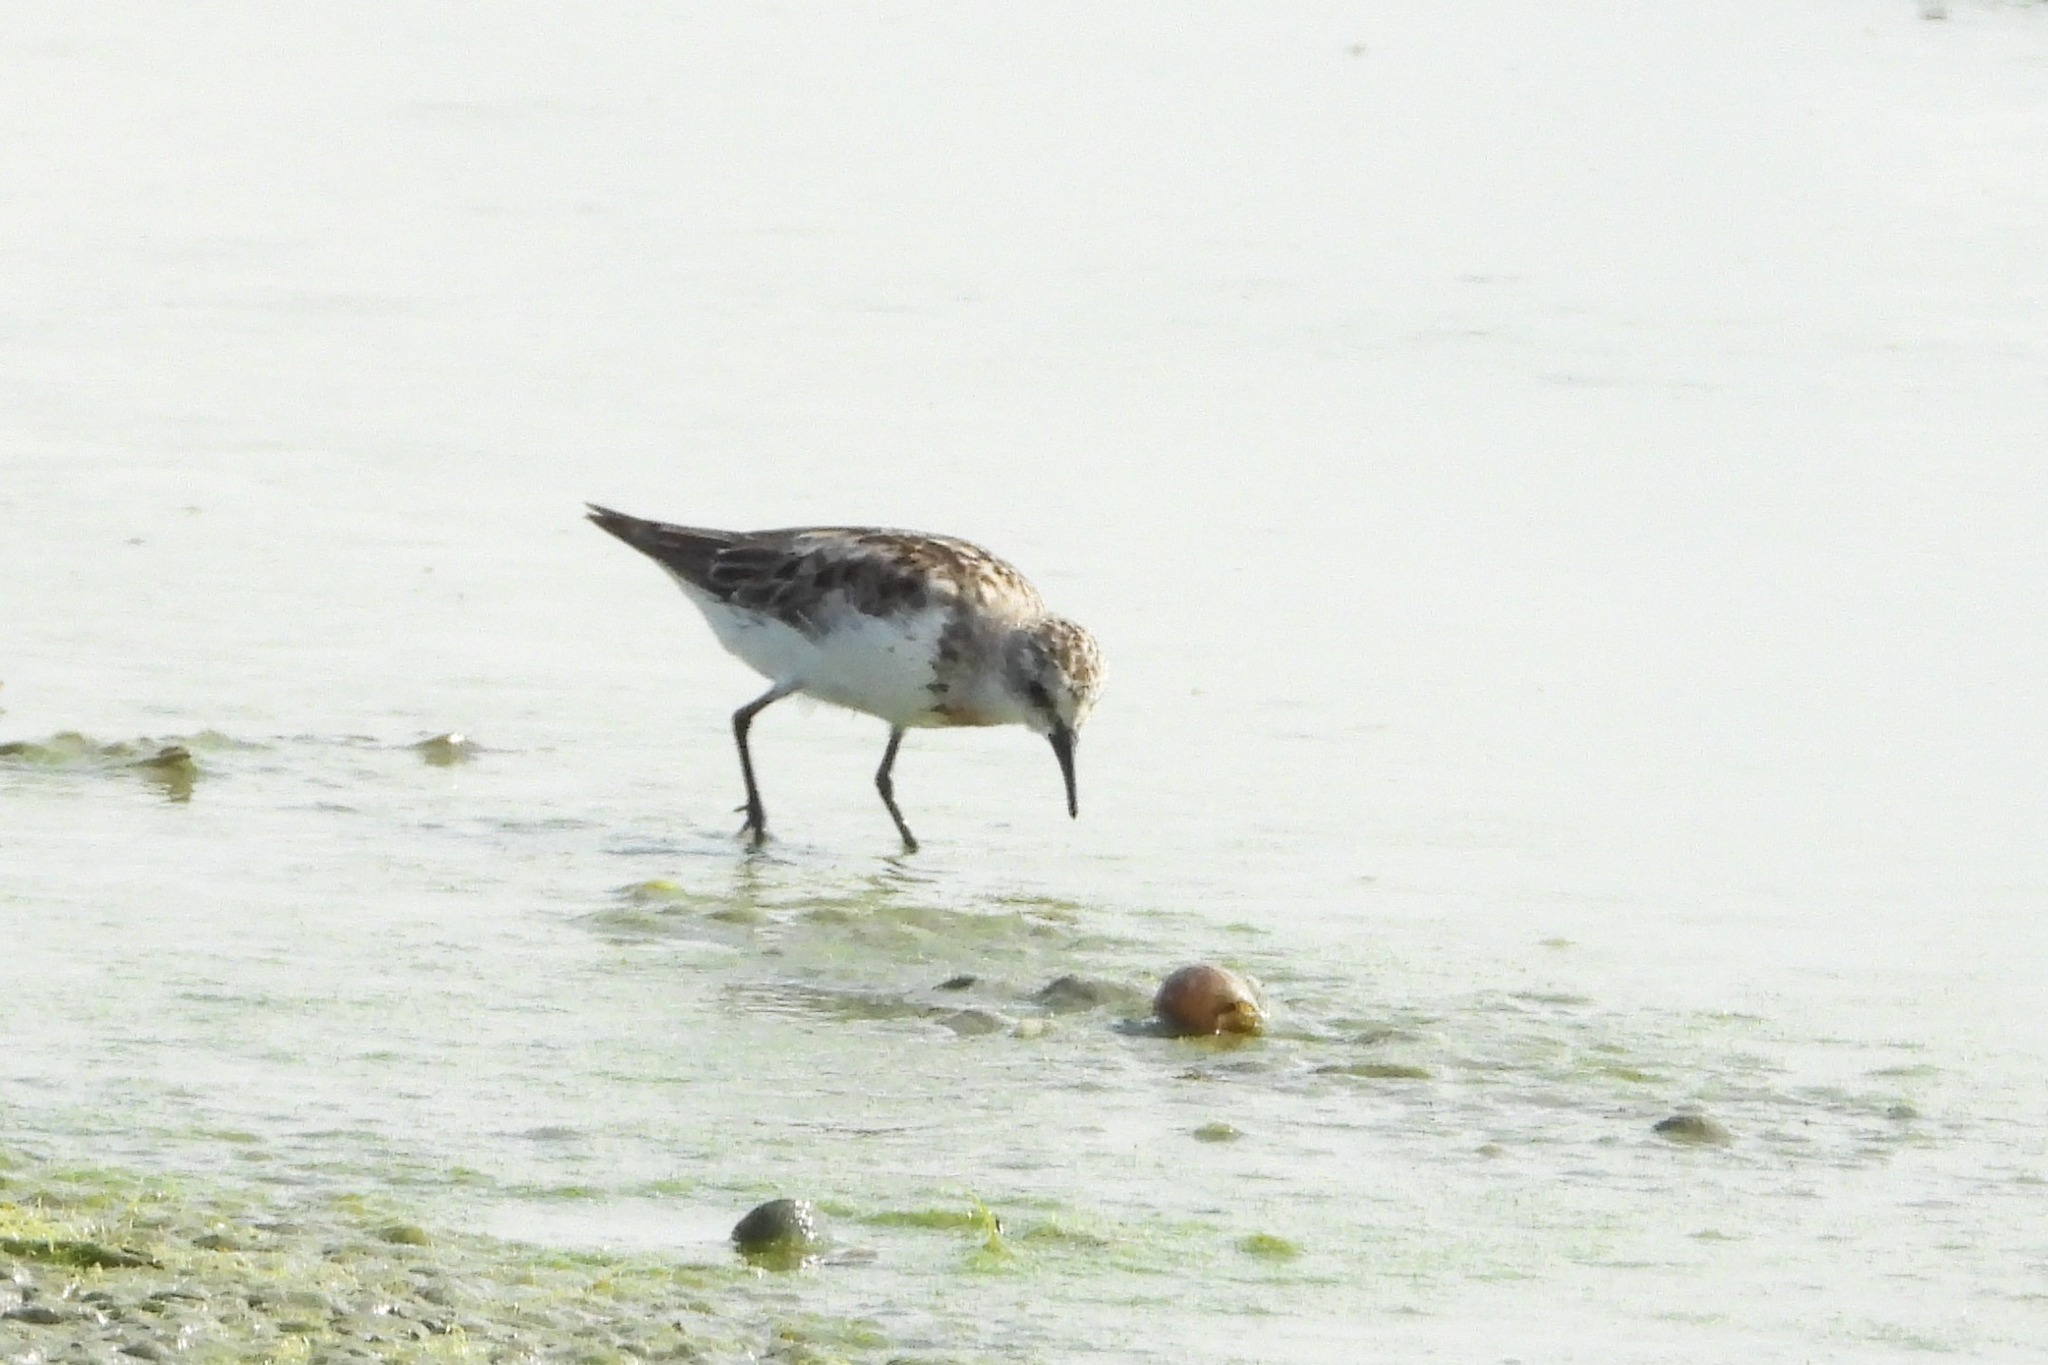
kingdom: Animalia
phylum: Chordata
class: Aves
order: Charadriiformes
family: Scolopacidae
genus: Calidris
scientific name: Calidris ruficollis
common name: Red-necked stint
